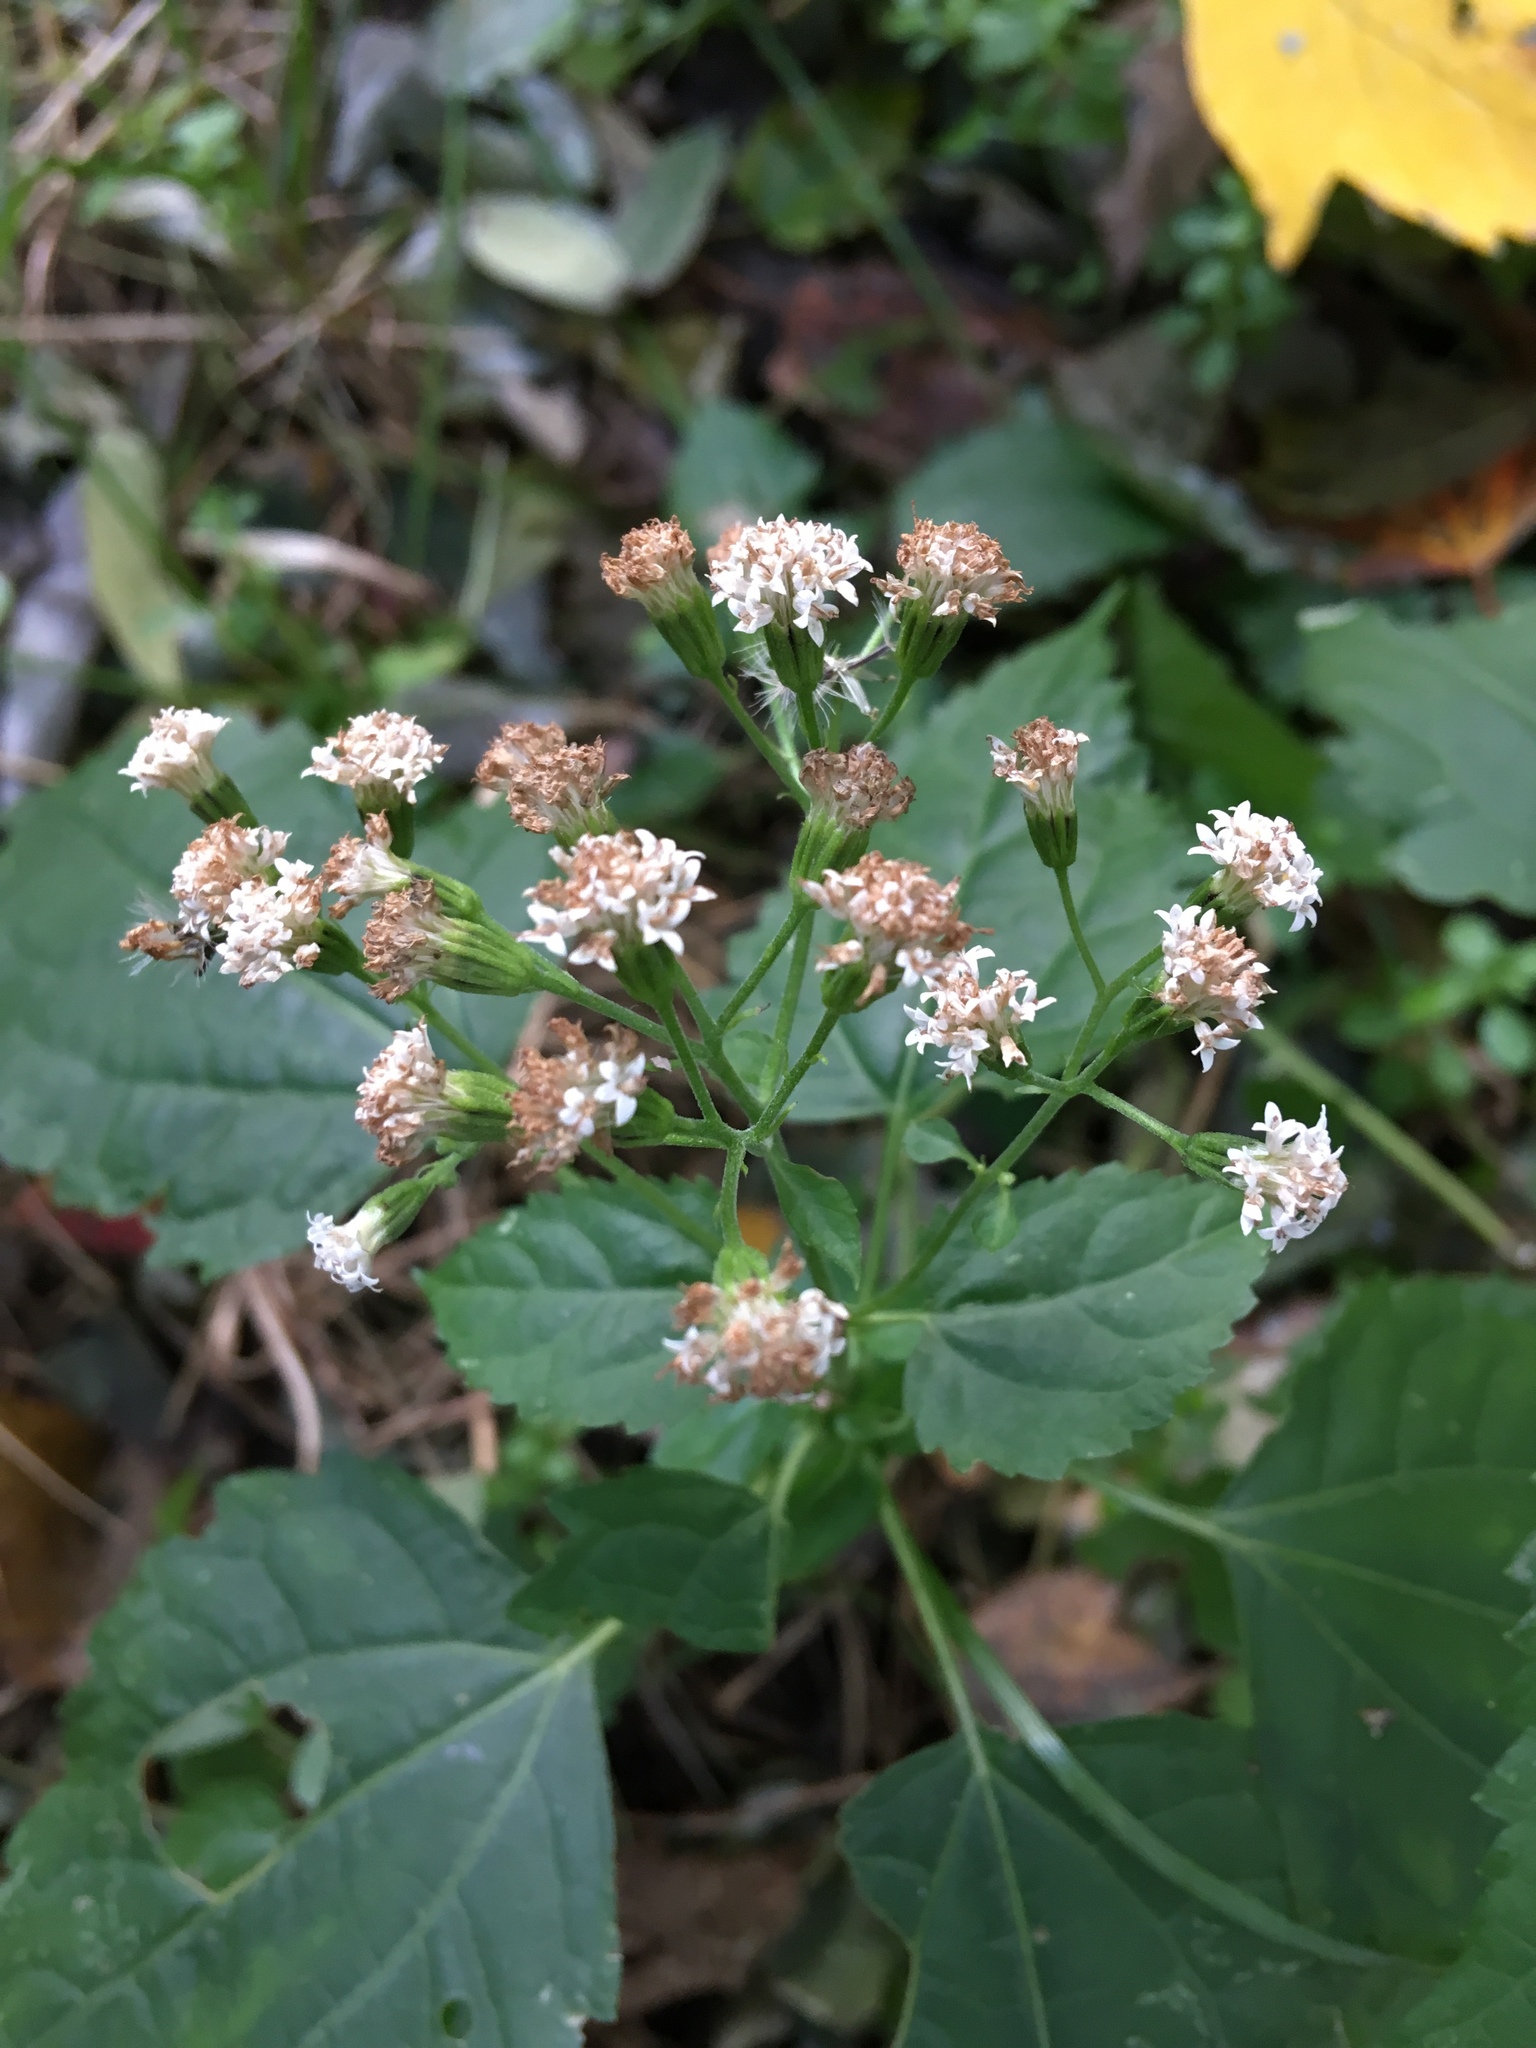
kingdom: Plantae
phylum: Tracheophyta
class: Magnoliopsida
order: Asterales
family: Asteraceae
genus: Ageratina
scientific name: Ageratina altissima
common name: White snakeroot
